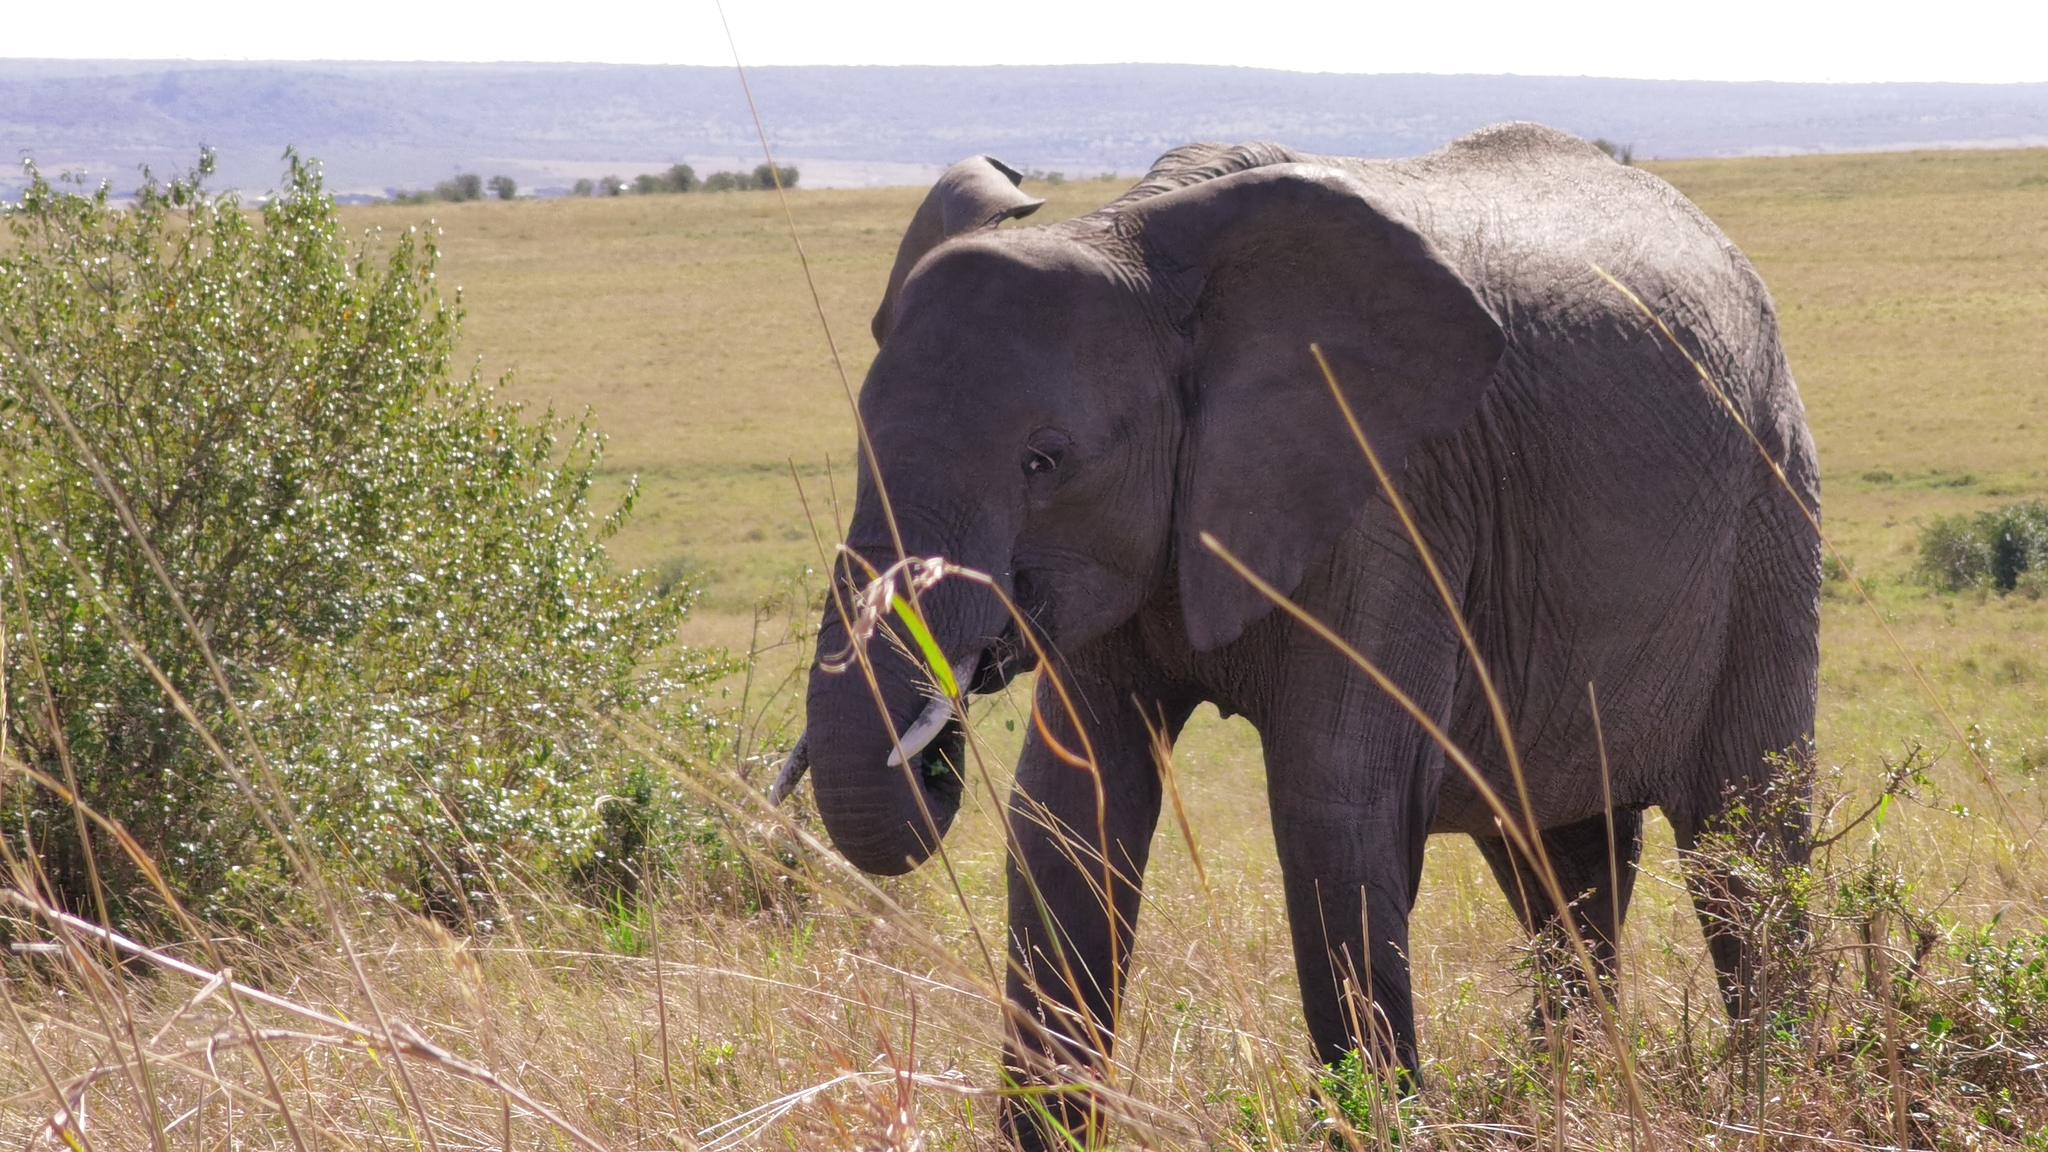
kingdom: Animalia
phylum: Chordata
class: Mammalia
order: Proboscidea
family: Elephantidae
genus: Loxodonta
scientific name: Loxodonta africana
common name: African elephant
